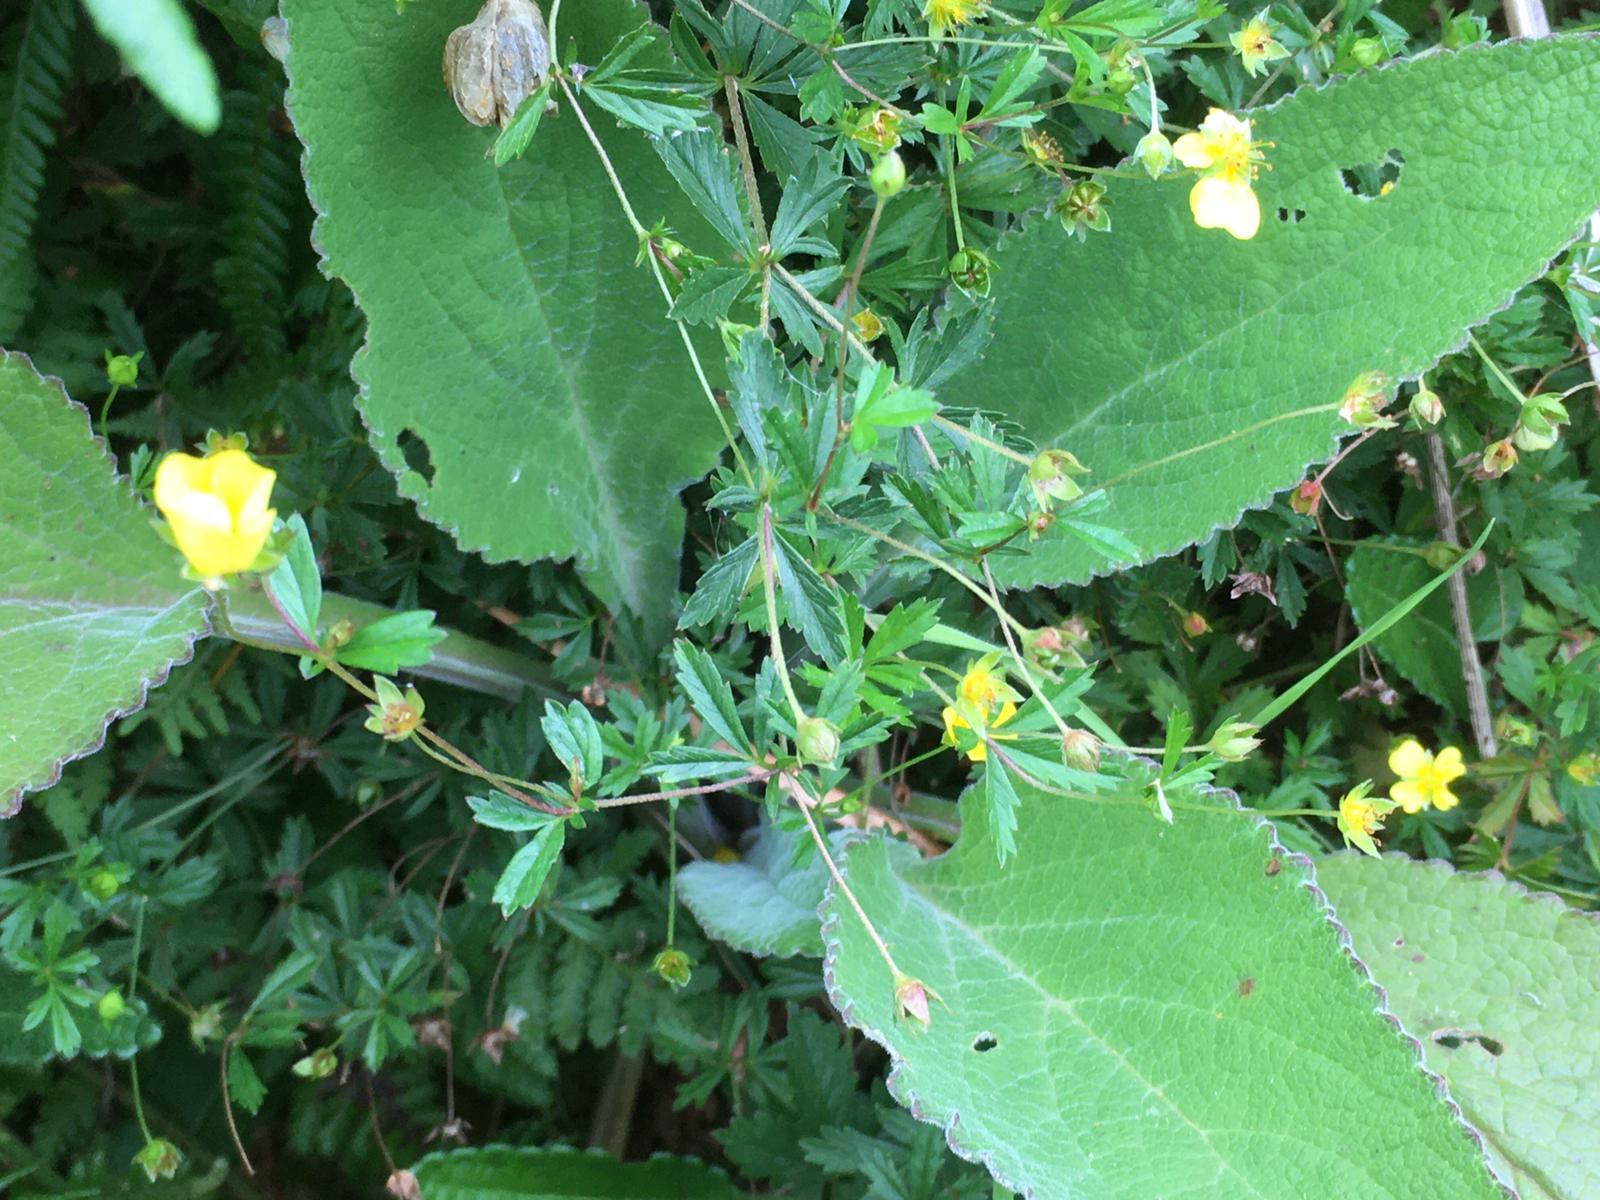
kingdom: Plantae
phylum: Tracheophyta
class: Magnoliopsida
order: Rosales
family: Rosaceae
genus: Potentilla
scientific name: Potentilla erecta
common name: Tormentil
